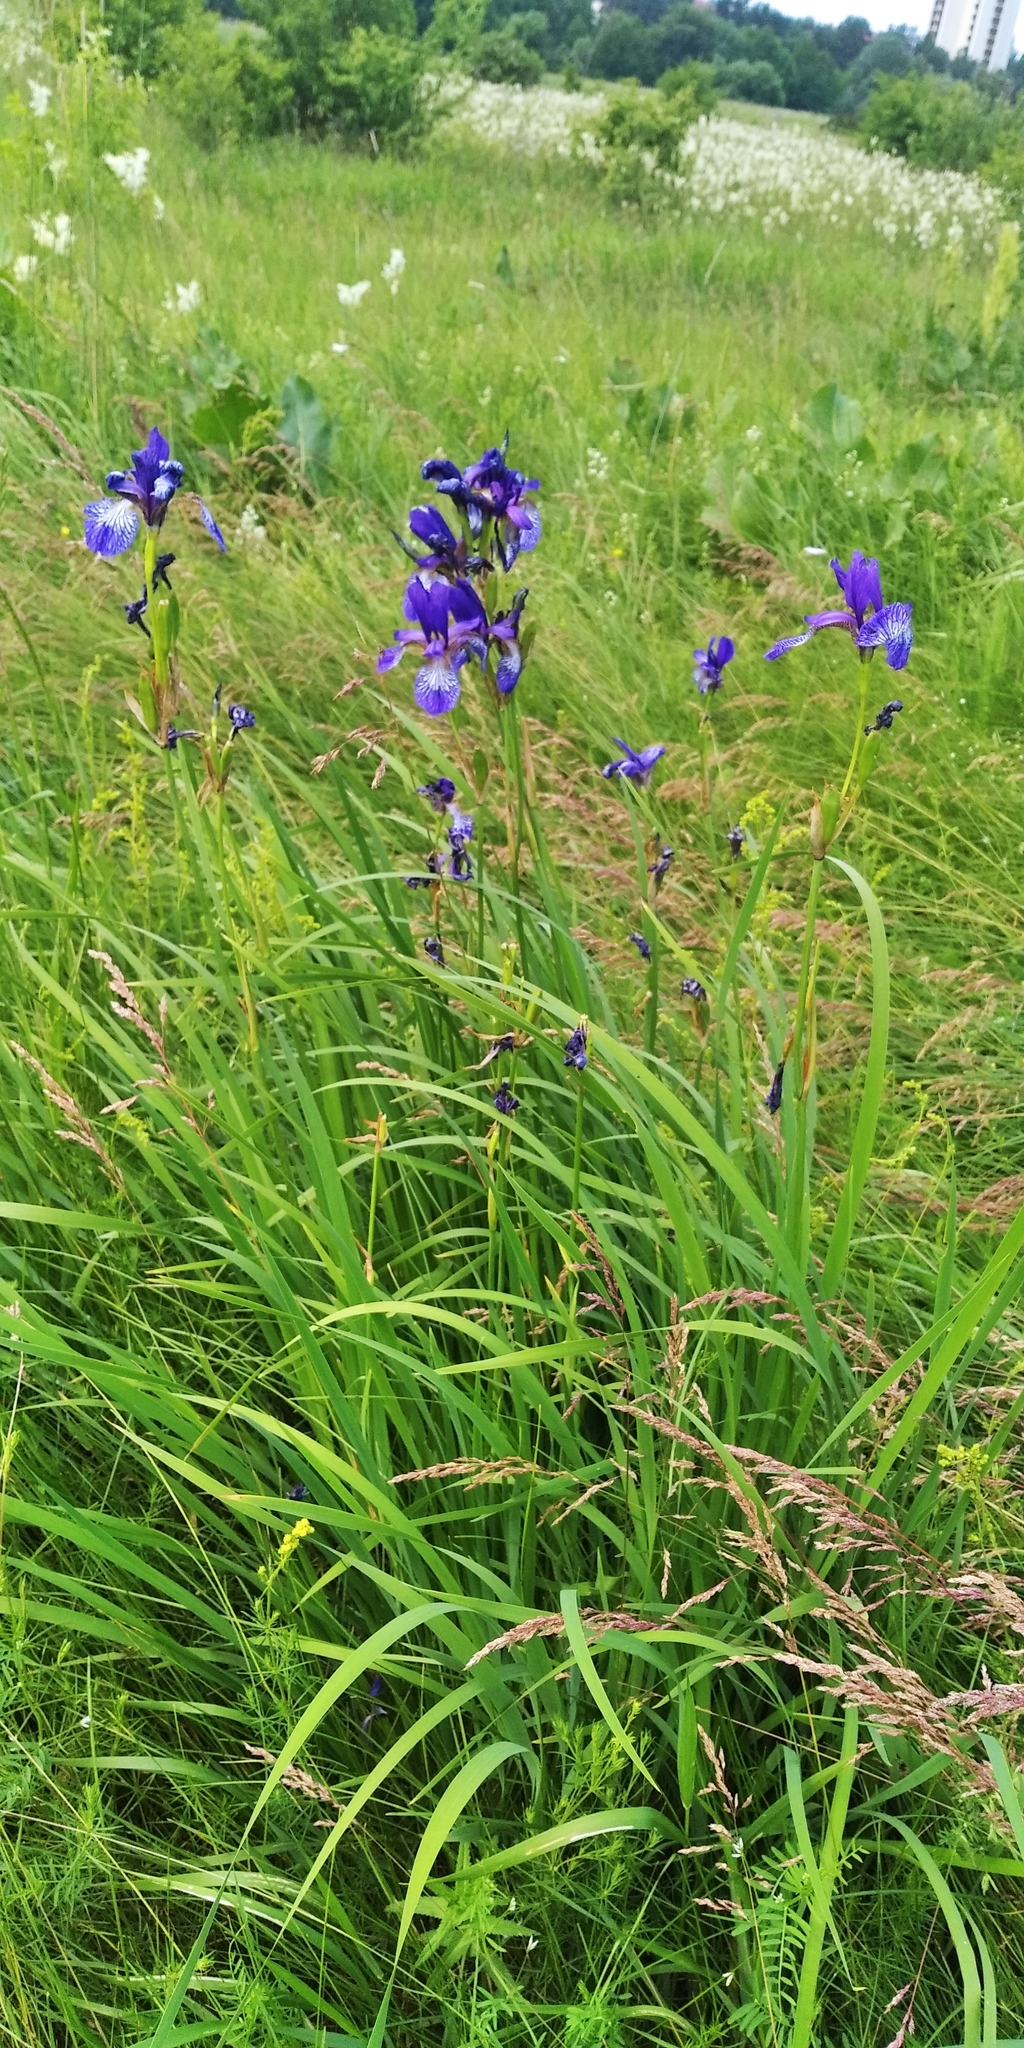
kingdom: Plantae
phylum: Tracheophyta
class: Liliopsida
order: Asparagales
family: Iridaceae
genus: Iris
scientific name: Iris sibirica
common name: Siberian iris
